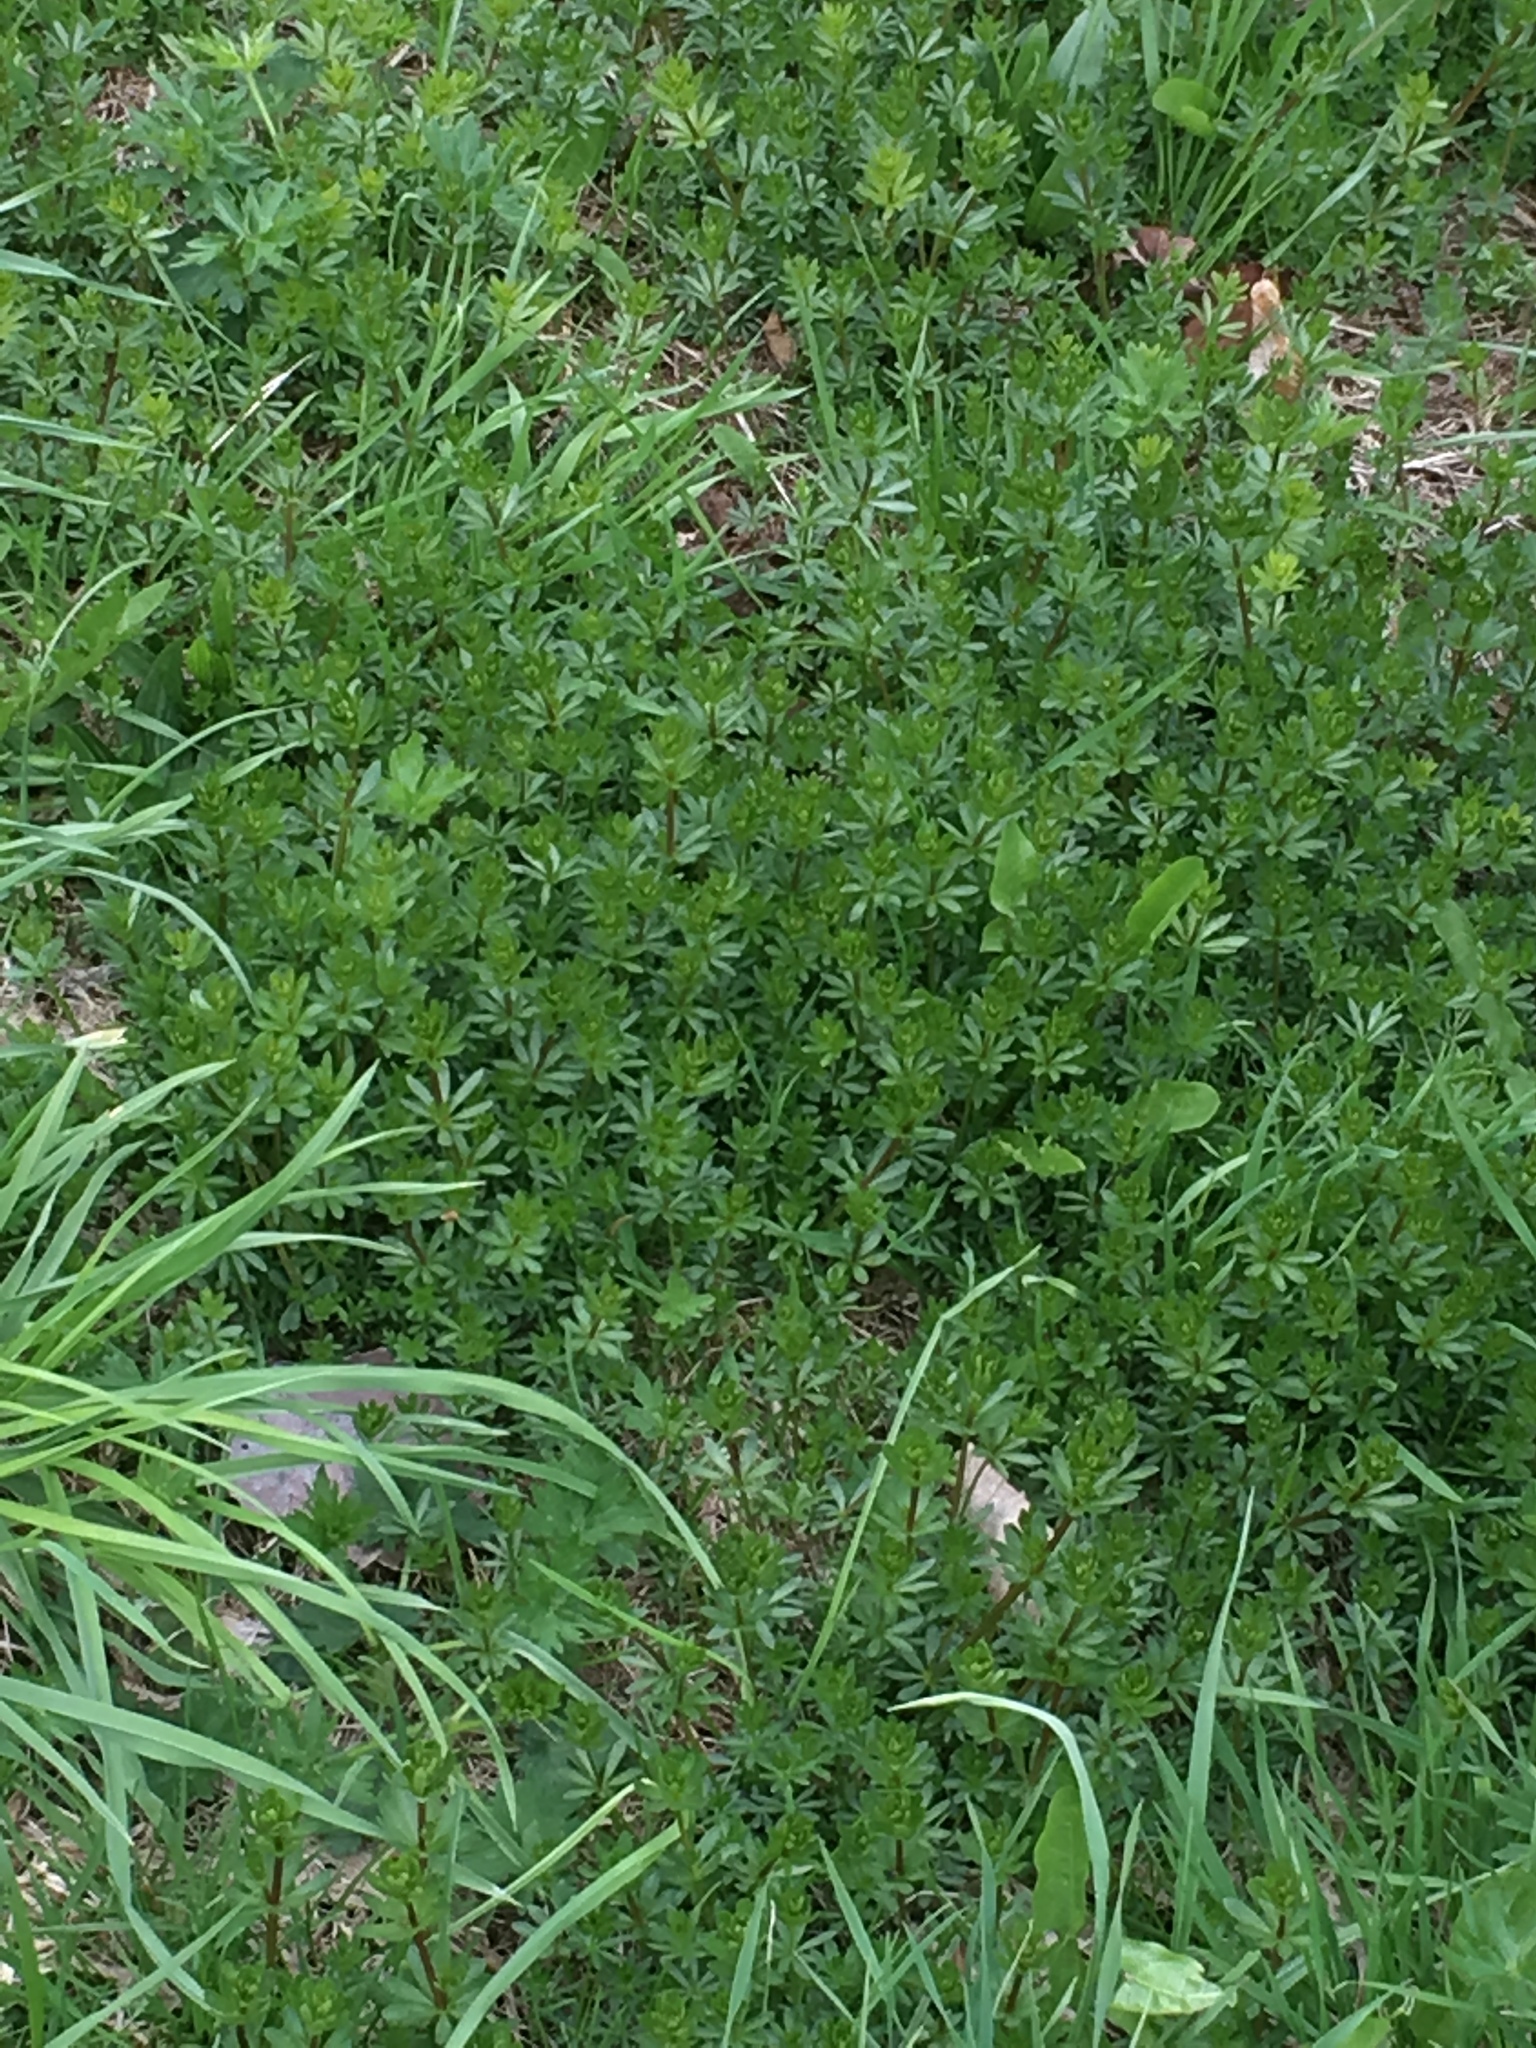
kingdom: Plantae
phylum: Tracheophyta
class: Magnoliopsida
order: Gentianales
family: Rubiaceae
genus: Galium
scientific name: Galium mollugo
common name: Hedge bedstraw
